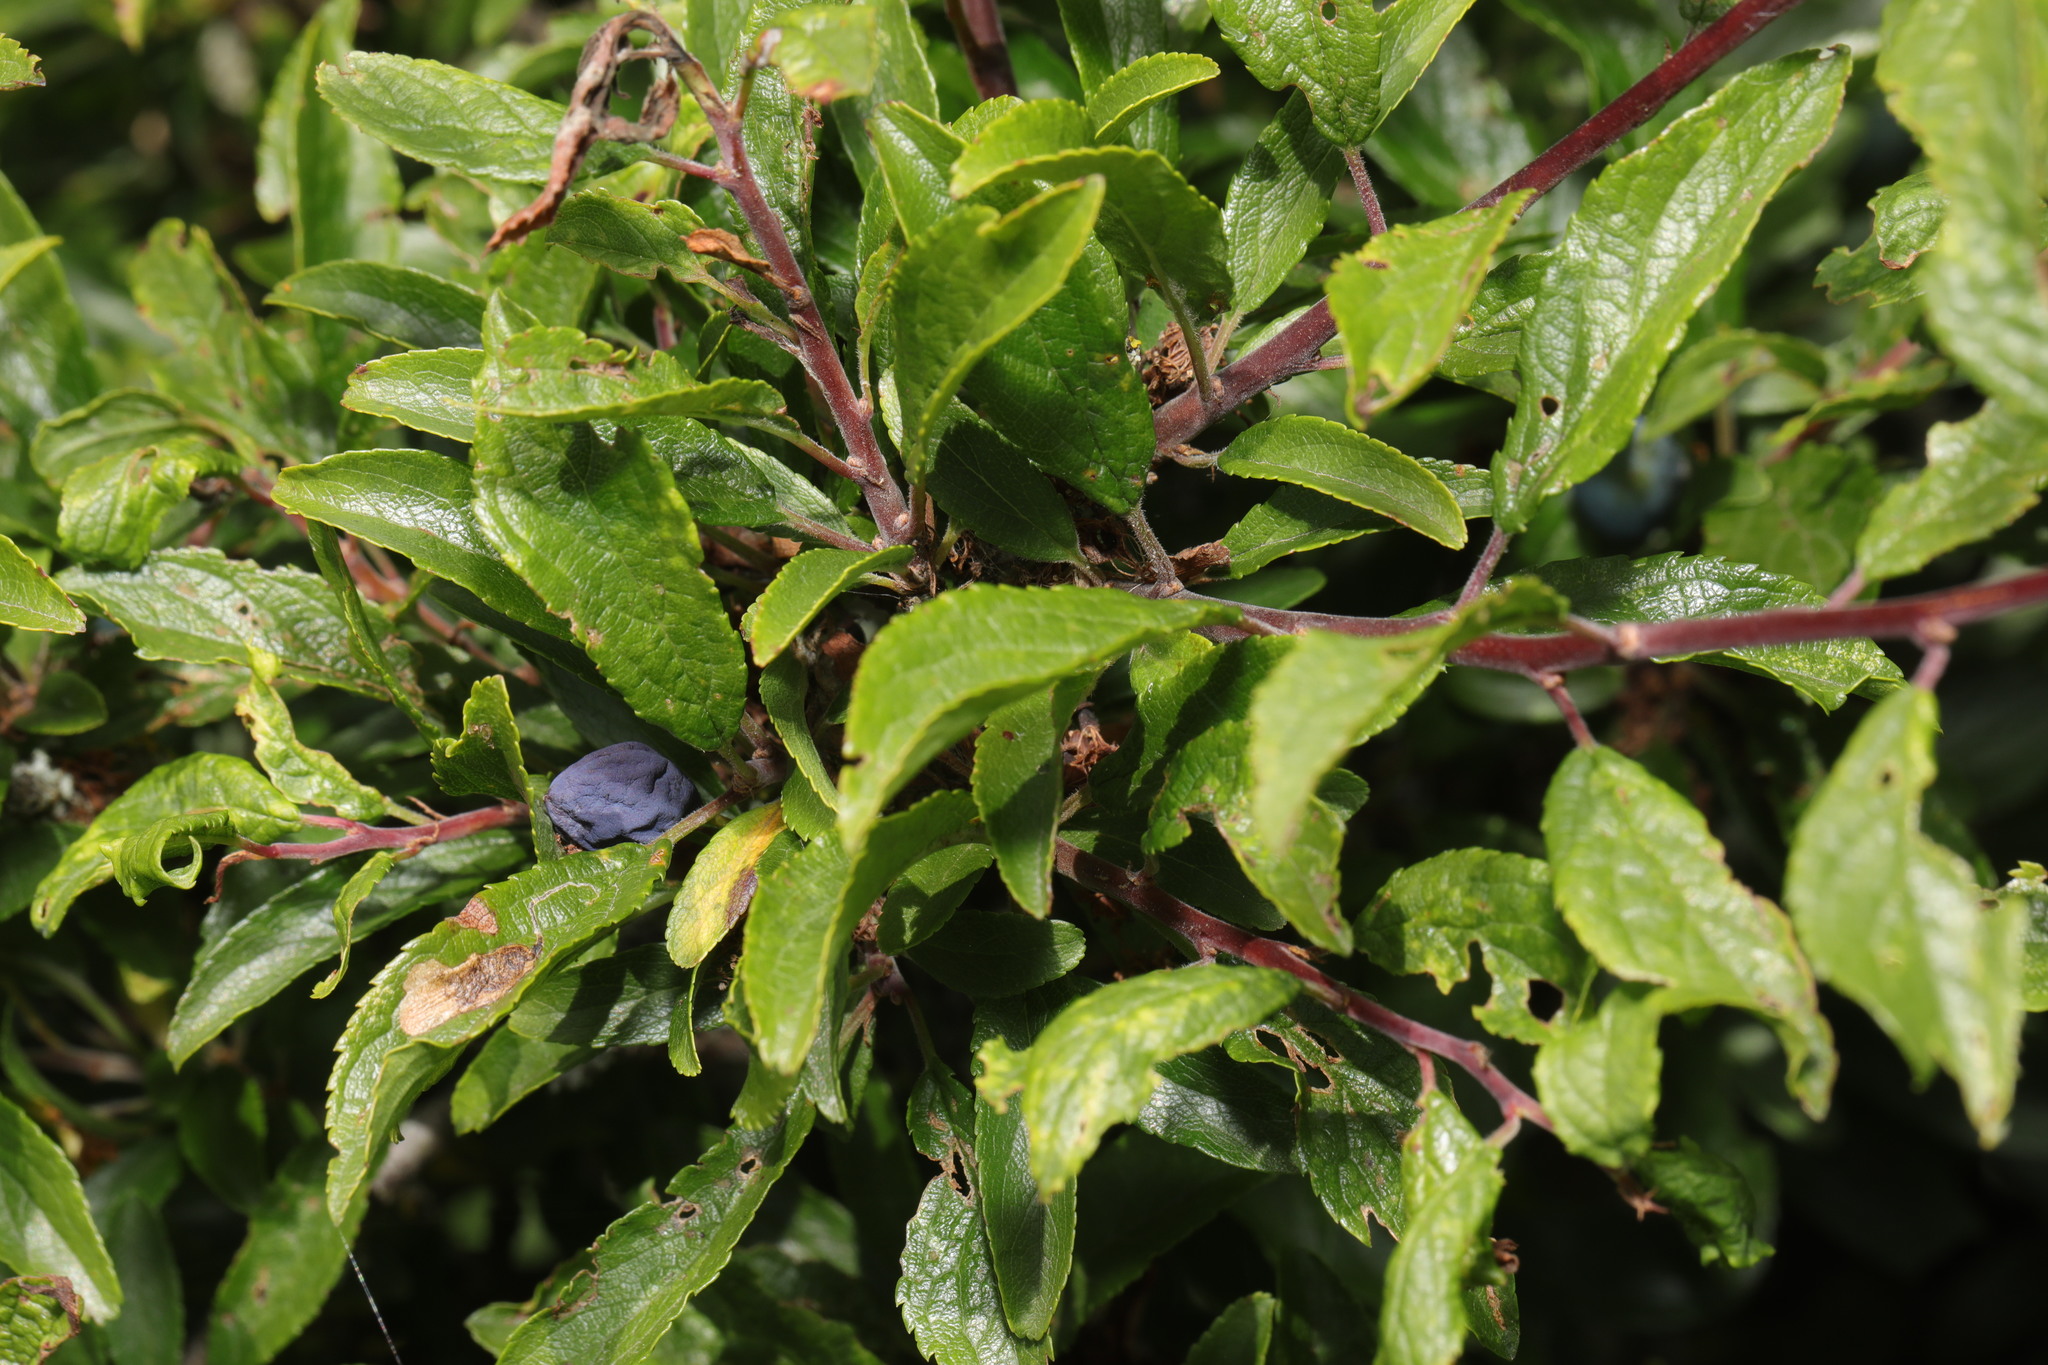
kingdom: Plantae
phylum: Tracheophyta
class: Magnoliopsida
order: Rosales
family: Rosaceae
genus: Prunus
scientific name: Prunus spinosa
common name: Blackthorn
